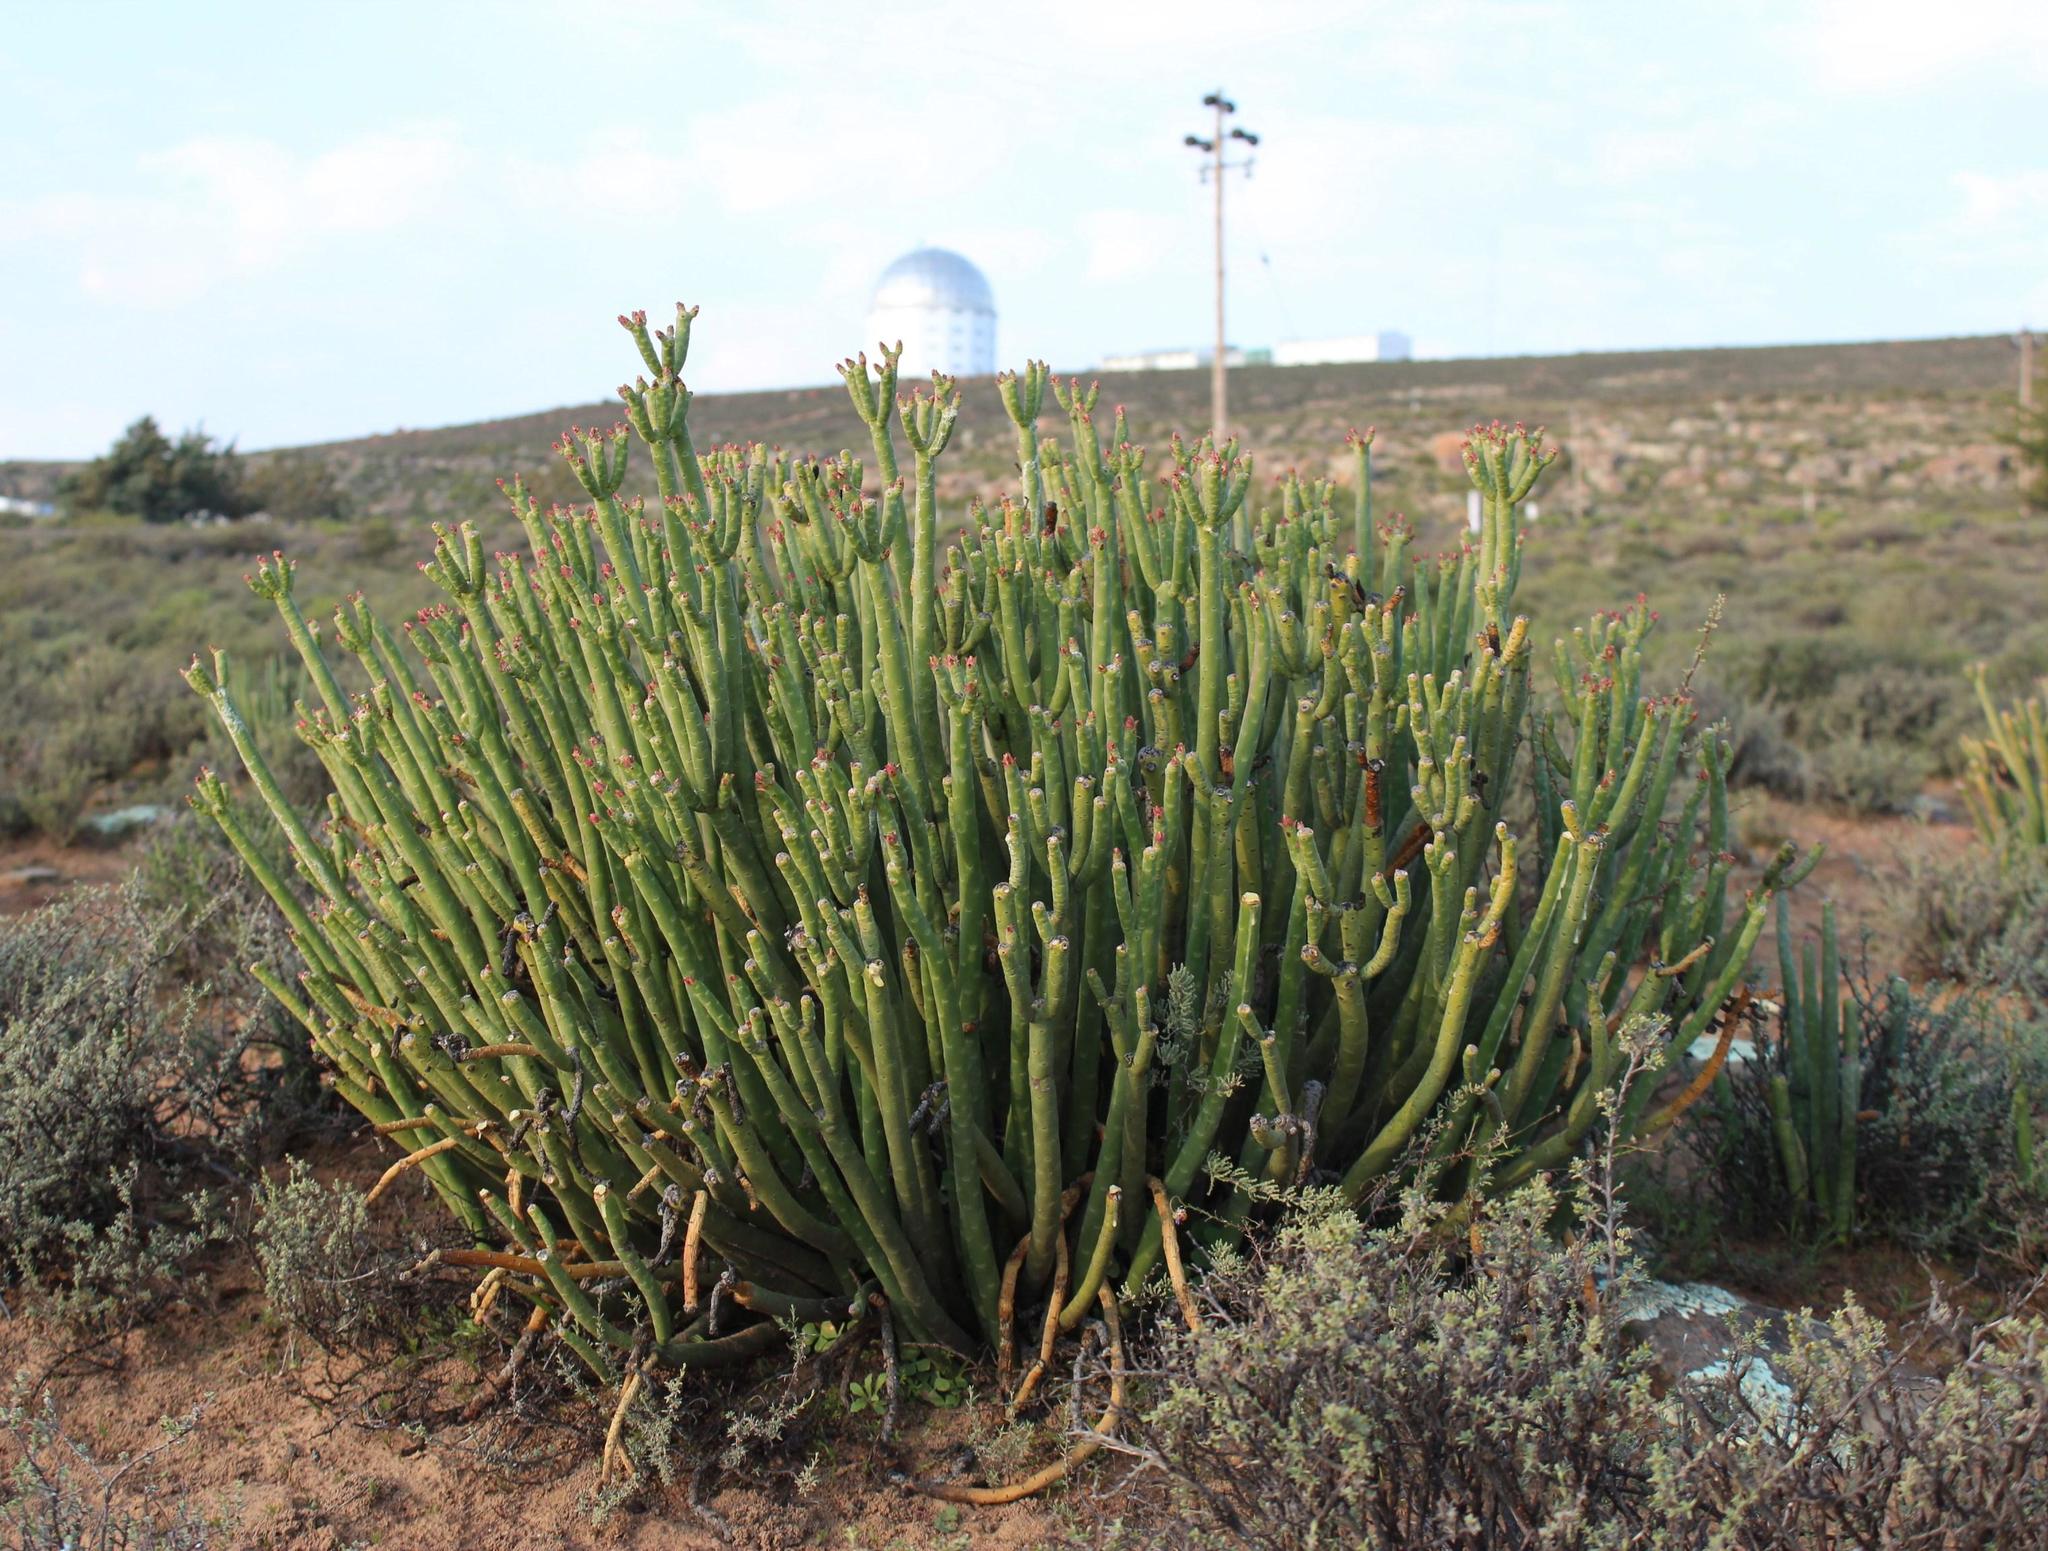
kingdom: Plantae
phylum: Tracheophyta
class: Magnoliopsida
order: Malpighiales
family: Euphorbiaceae
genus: Euphorbia
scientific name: Euphorbia stolonifera
